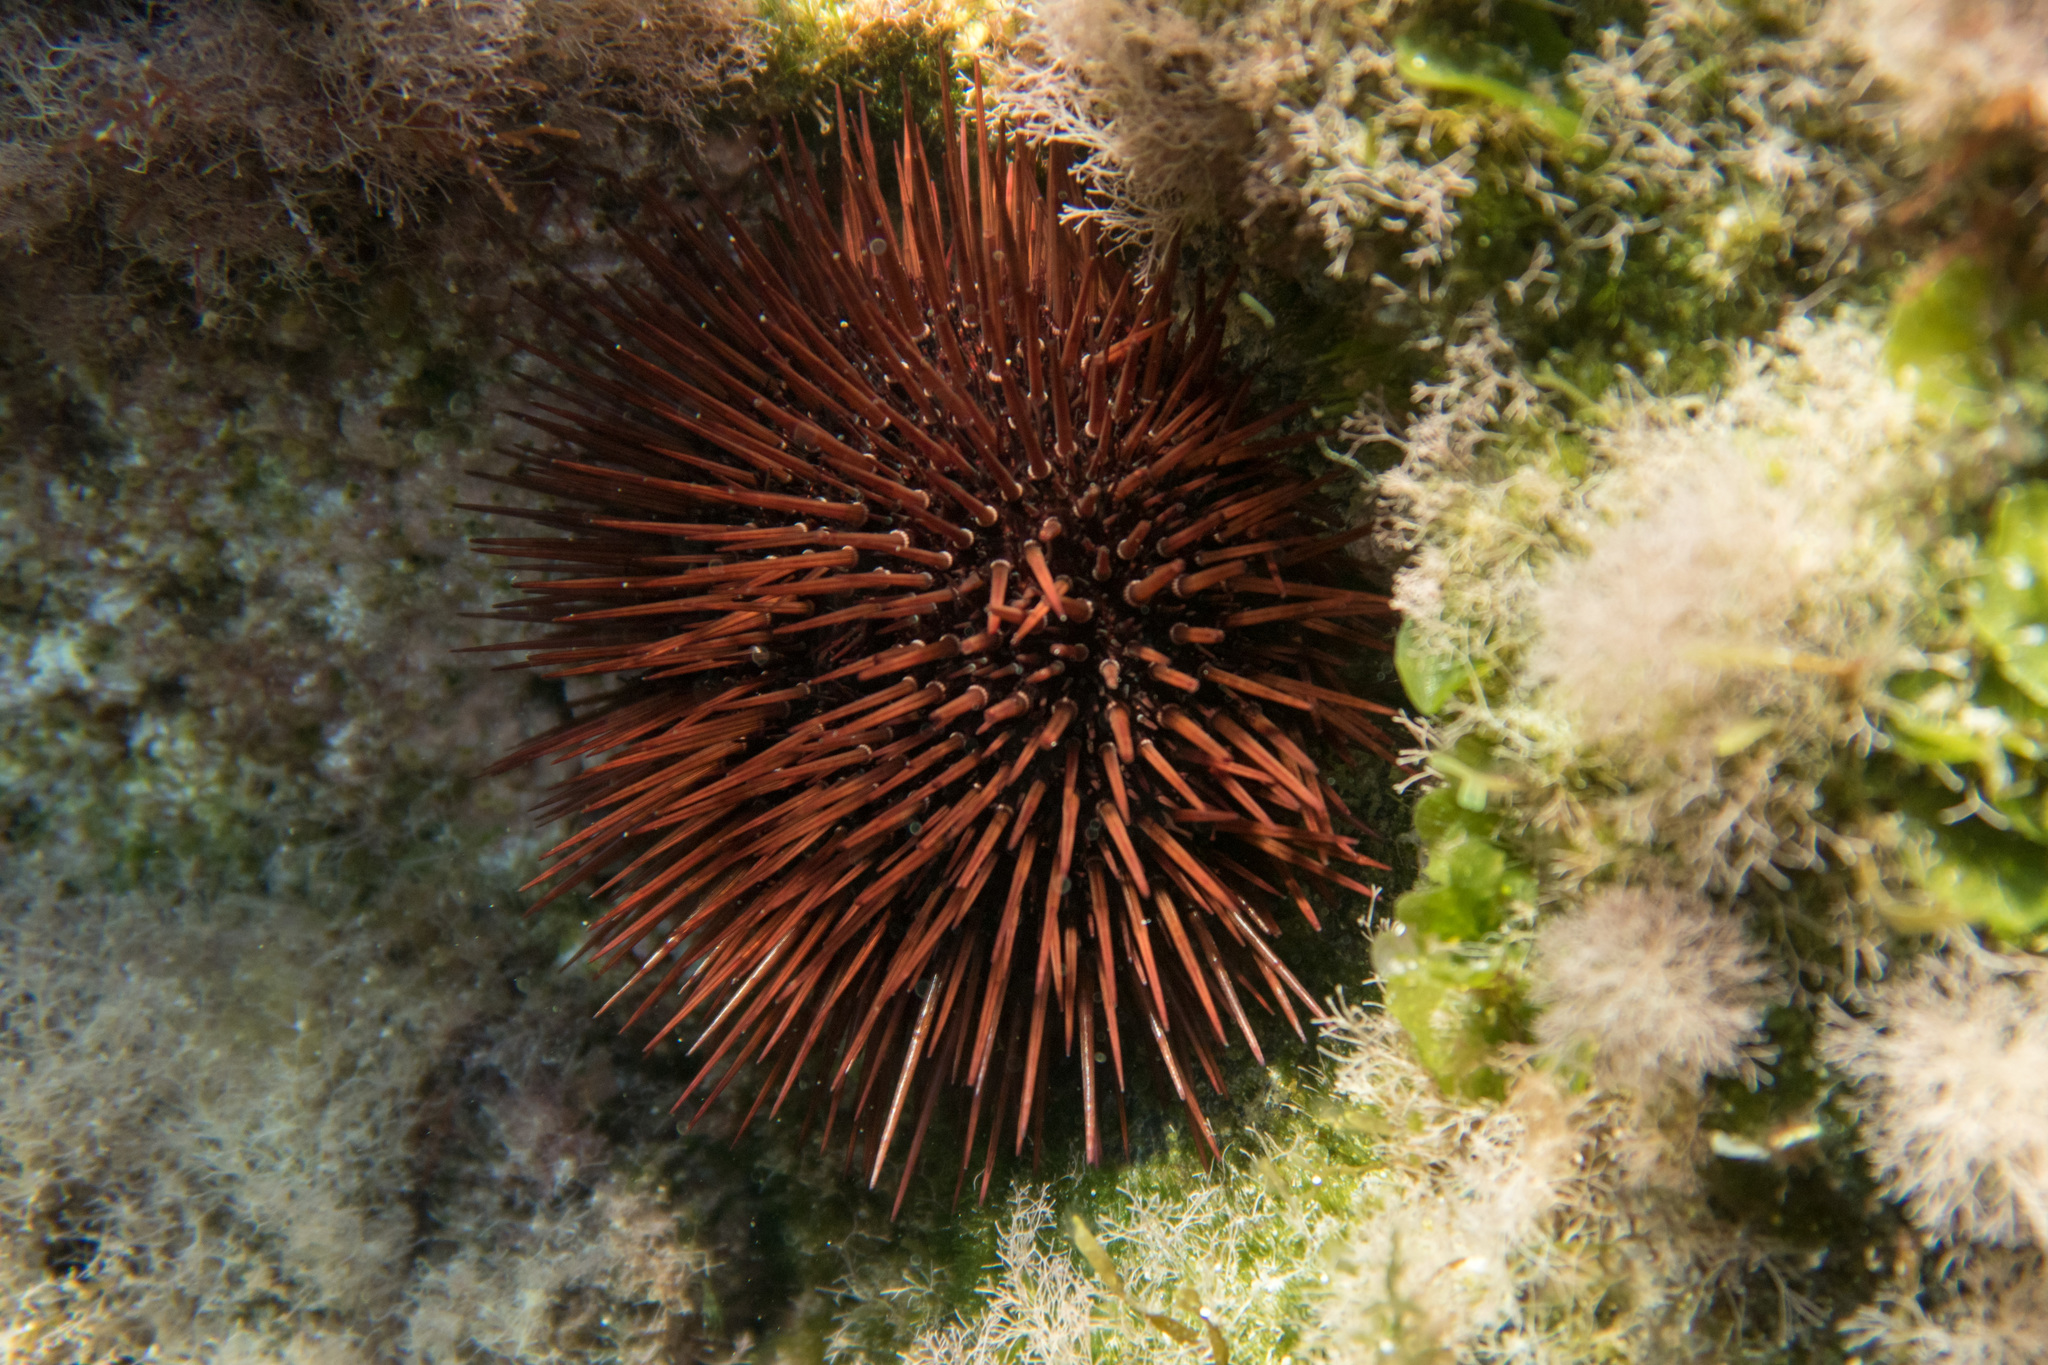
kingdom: Animalia
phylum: Echinodermata
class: Echinoidea
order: Camarodonta
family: Parechinidae
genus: Paracentrotus
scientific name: Paracentrotus lividus
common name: Purple sea urchin
